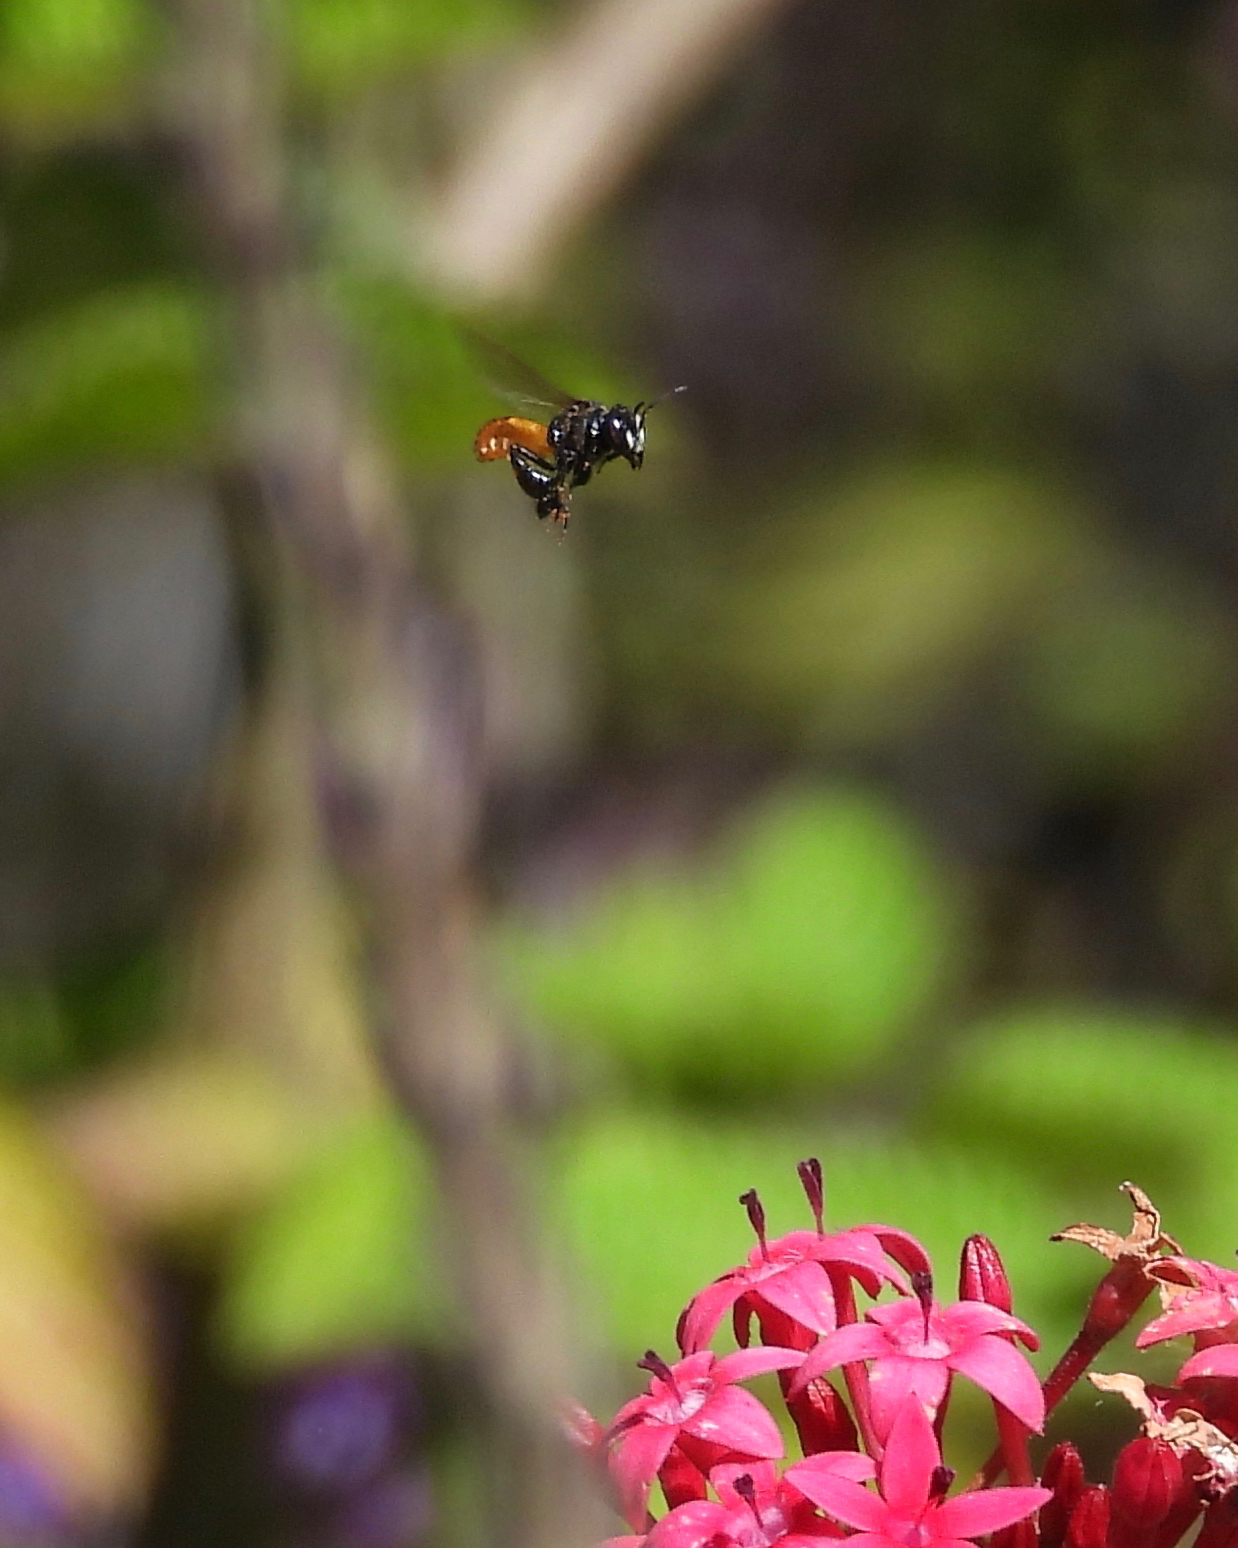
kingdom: Animalia
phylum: Arthropoda
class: Insecta
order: Hymenoptera
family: Apidae
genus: Trigona
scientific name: Trigona fulviventris
